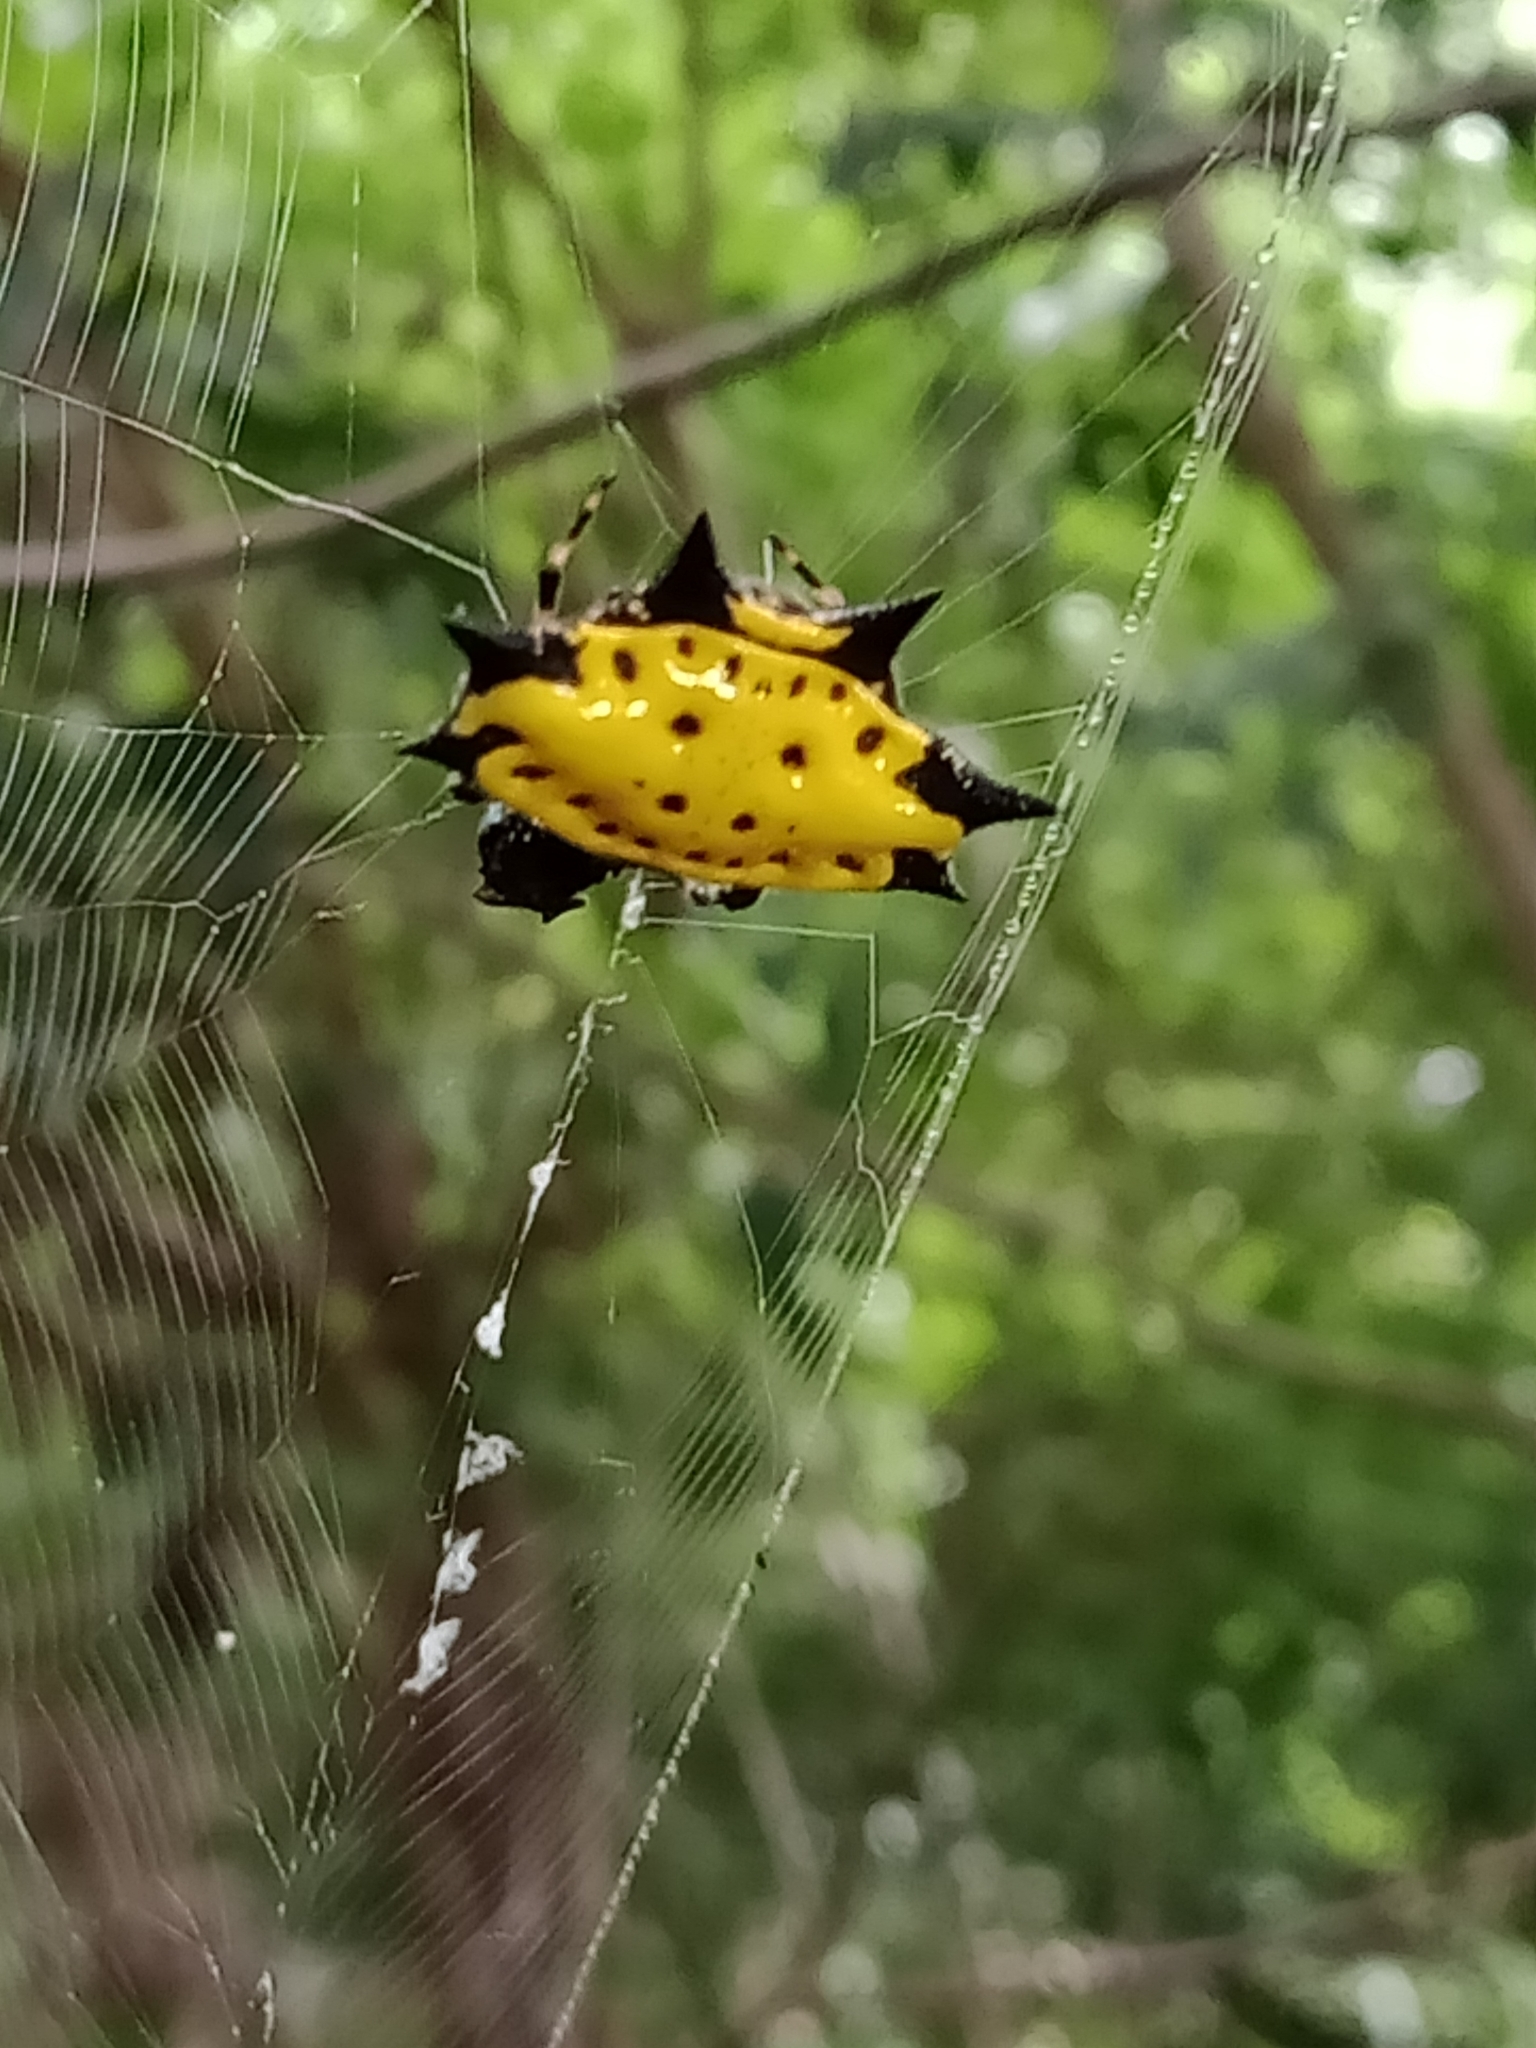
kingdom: Animalia
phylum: Arthropoda
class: Arachnida
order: Araneae
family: Araneidae
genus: Gasteracantha
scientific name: Gasteracantha cancriformis
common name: Orb weavers
